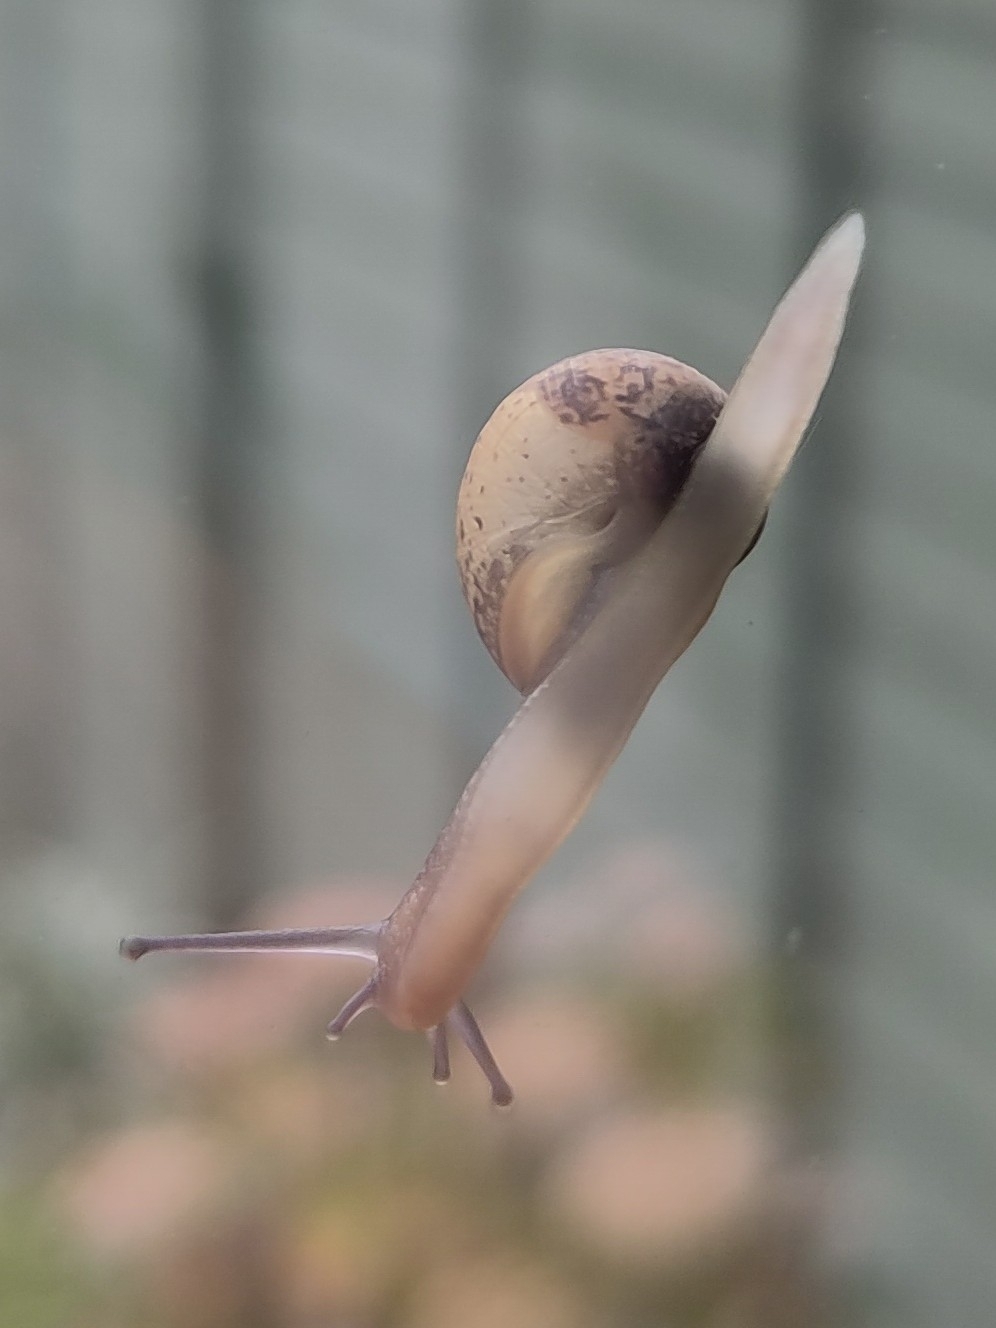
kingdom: Animalia
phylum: Mollusca
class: Gastropoda
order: Stylommatophora
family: Helicidae
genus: Cornu
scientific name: Cornu aspersum
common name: Brown garden snail
